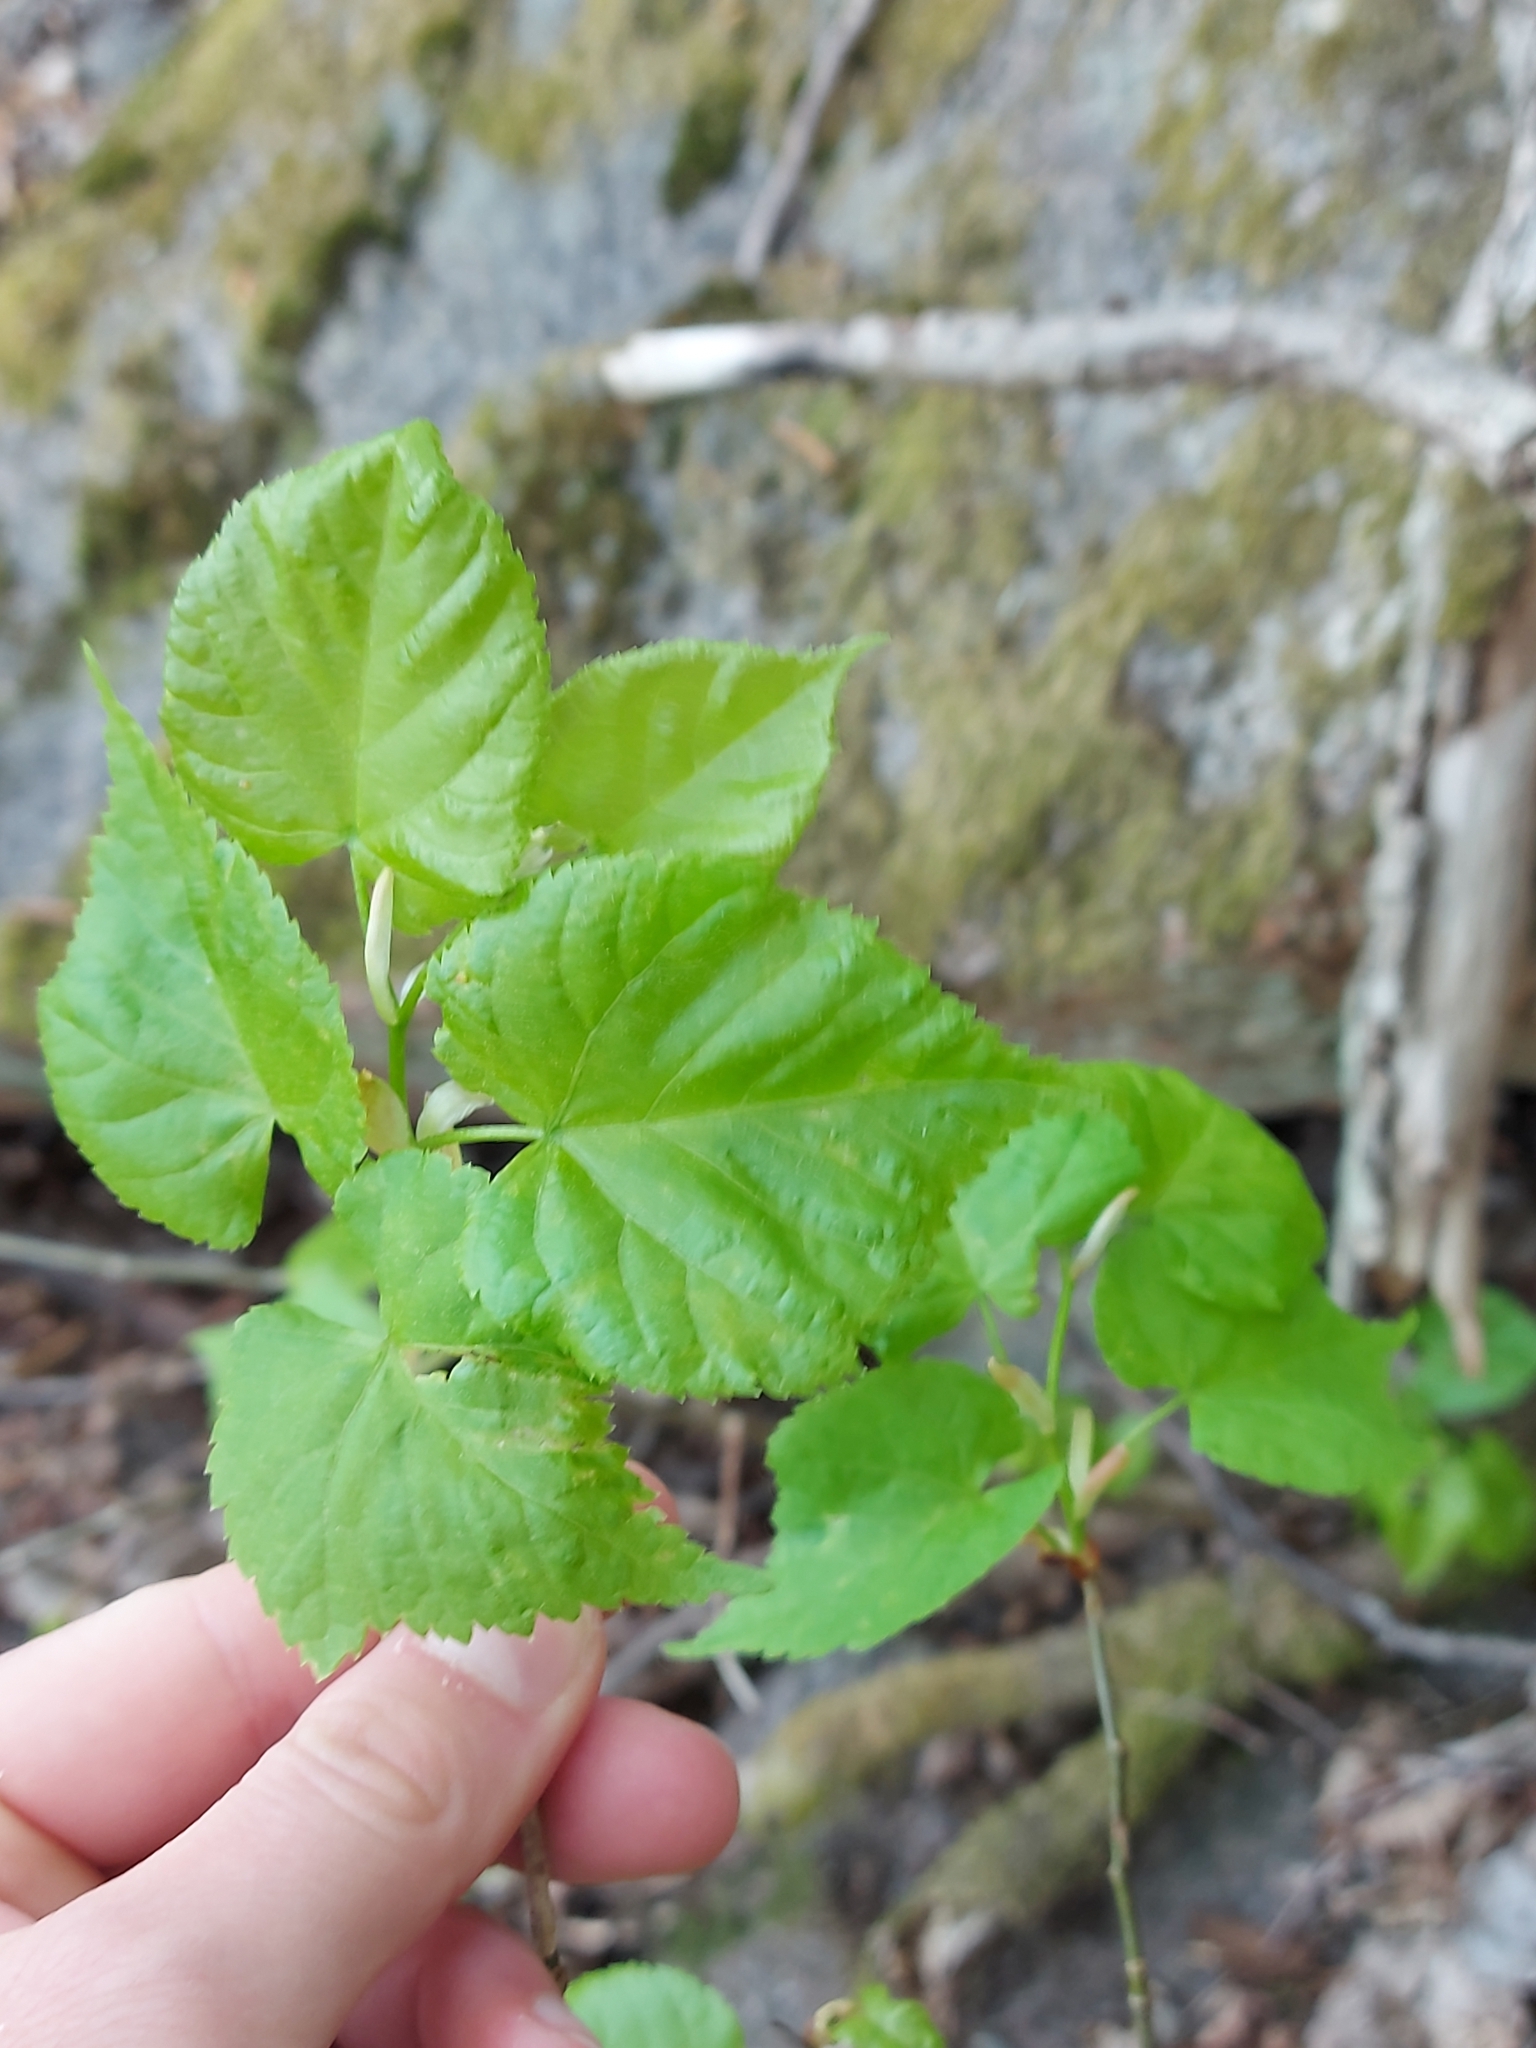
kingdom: Plantae
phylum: Tracheophyta
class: Magnoliopsida
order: Malvales
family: Malvaceae
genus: Tilia
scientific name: Tilia cordata
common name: Small-leaved lime
